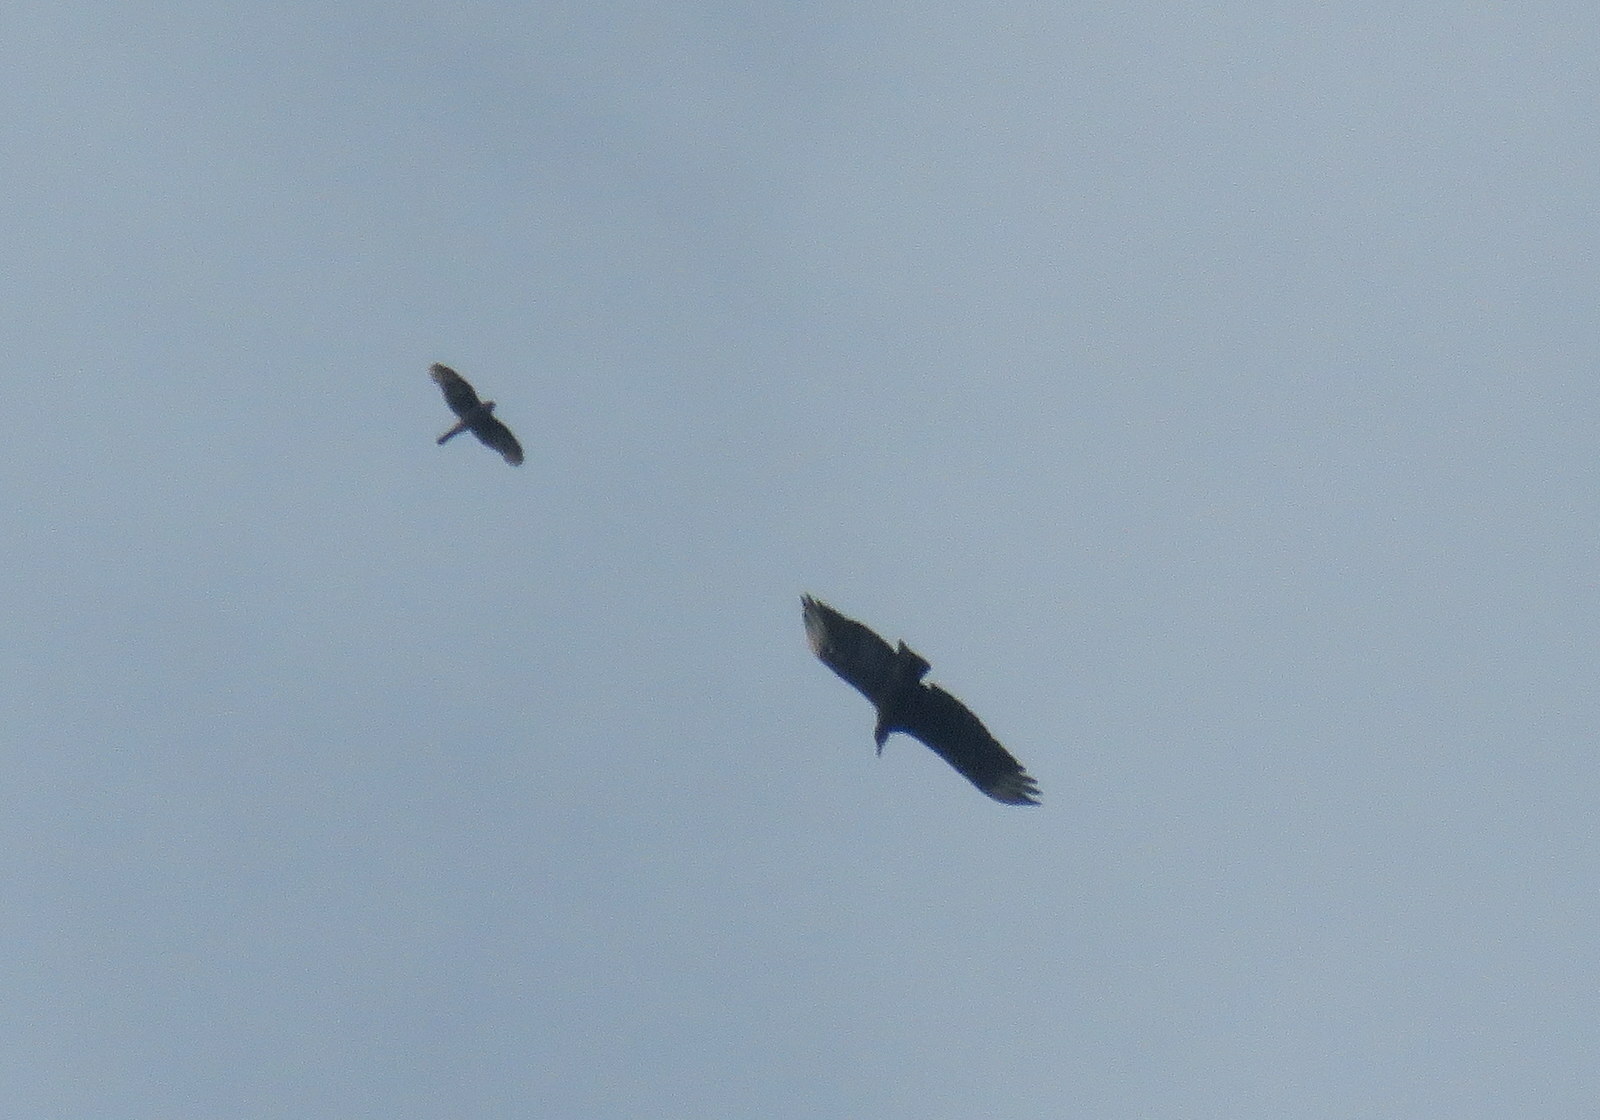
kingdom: Animalia
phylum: Chordata
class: Aves
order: Accipitriformes
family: Accipitridae
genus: Harpagus
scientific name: Harpagus diodon
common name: Rufous-thighed kite
